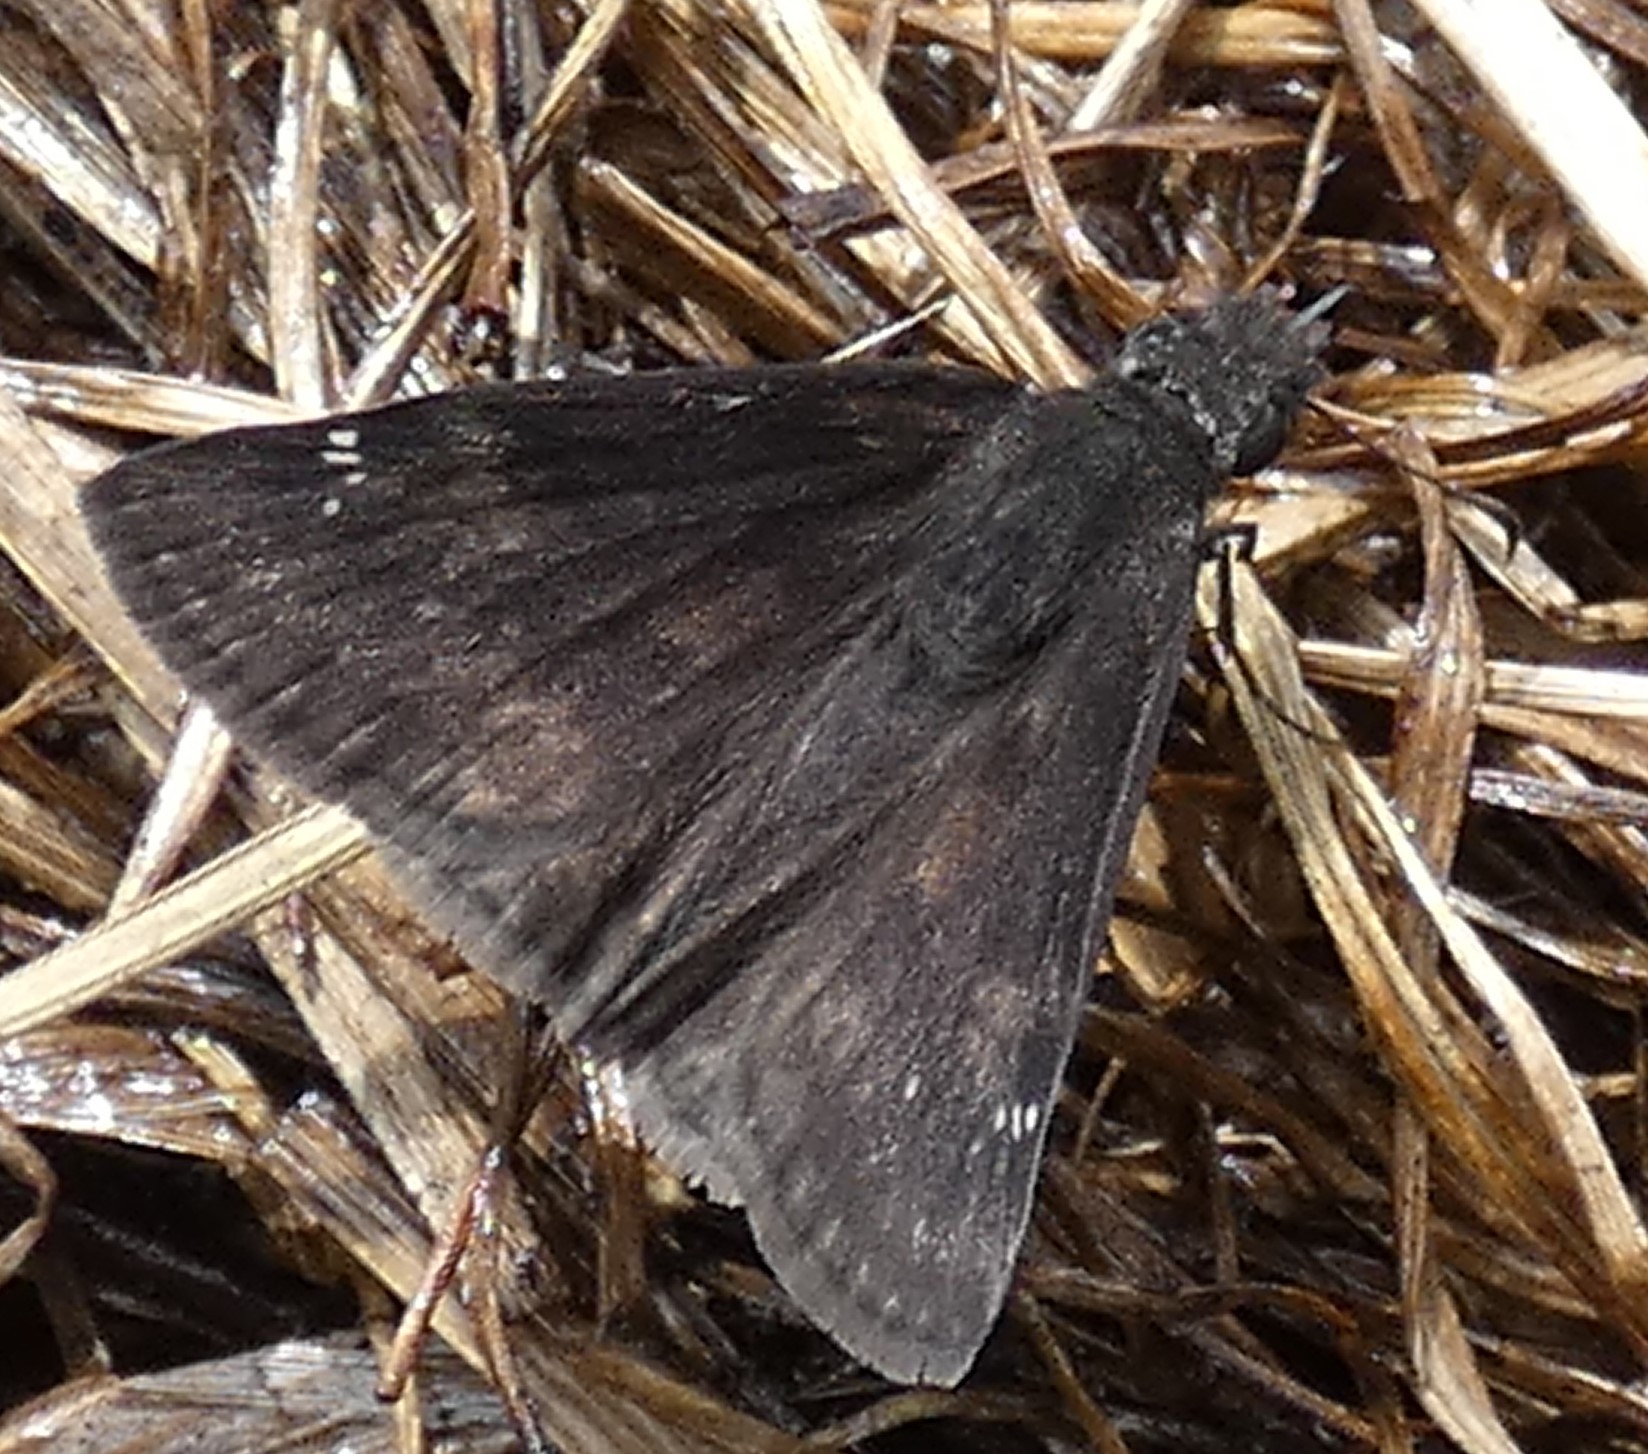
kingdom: Animalia
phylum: Arthropoda
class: Insecta
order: Lepidoptera
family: Hesperiidae
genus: Erynnis
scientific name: Erynnis zarucco
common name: Zarucco duskywing
